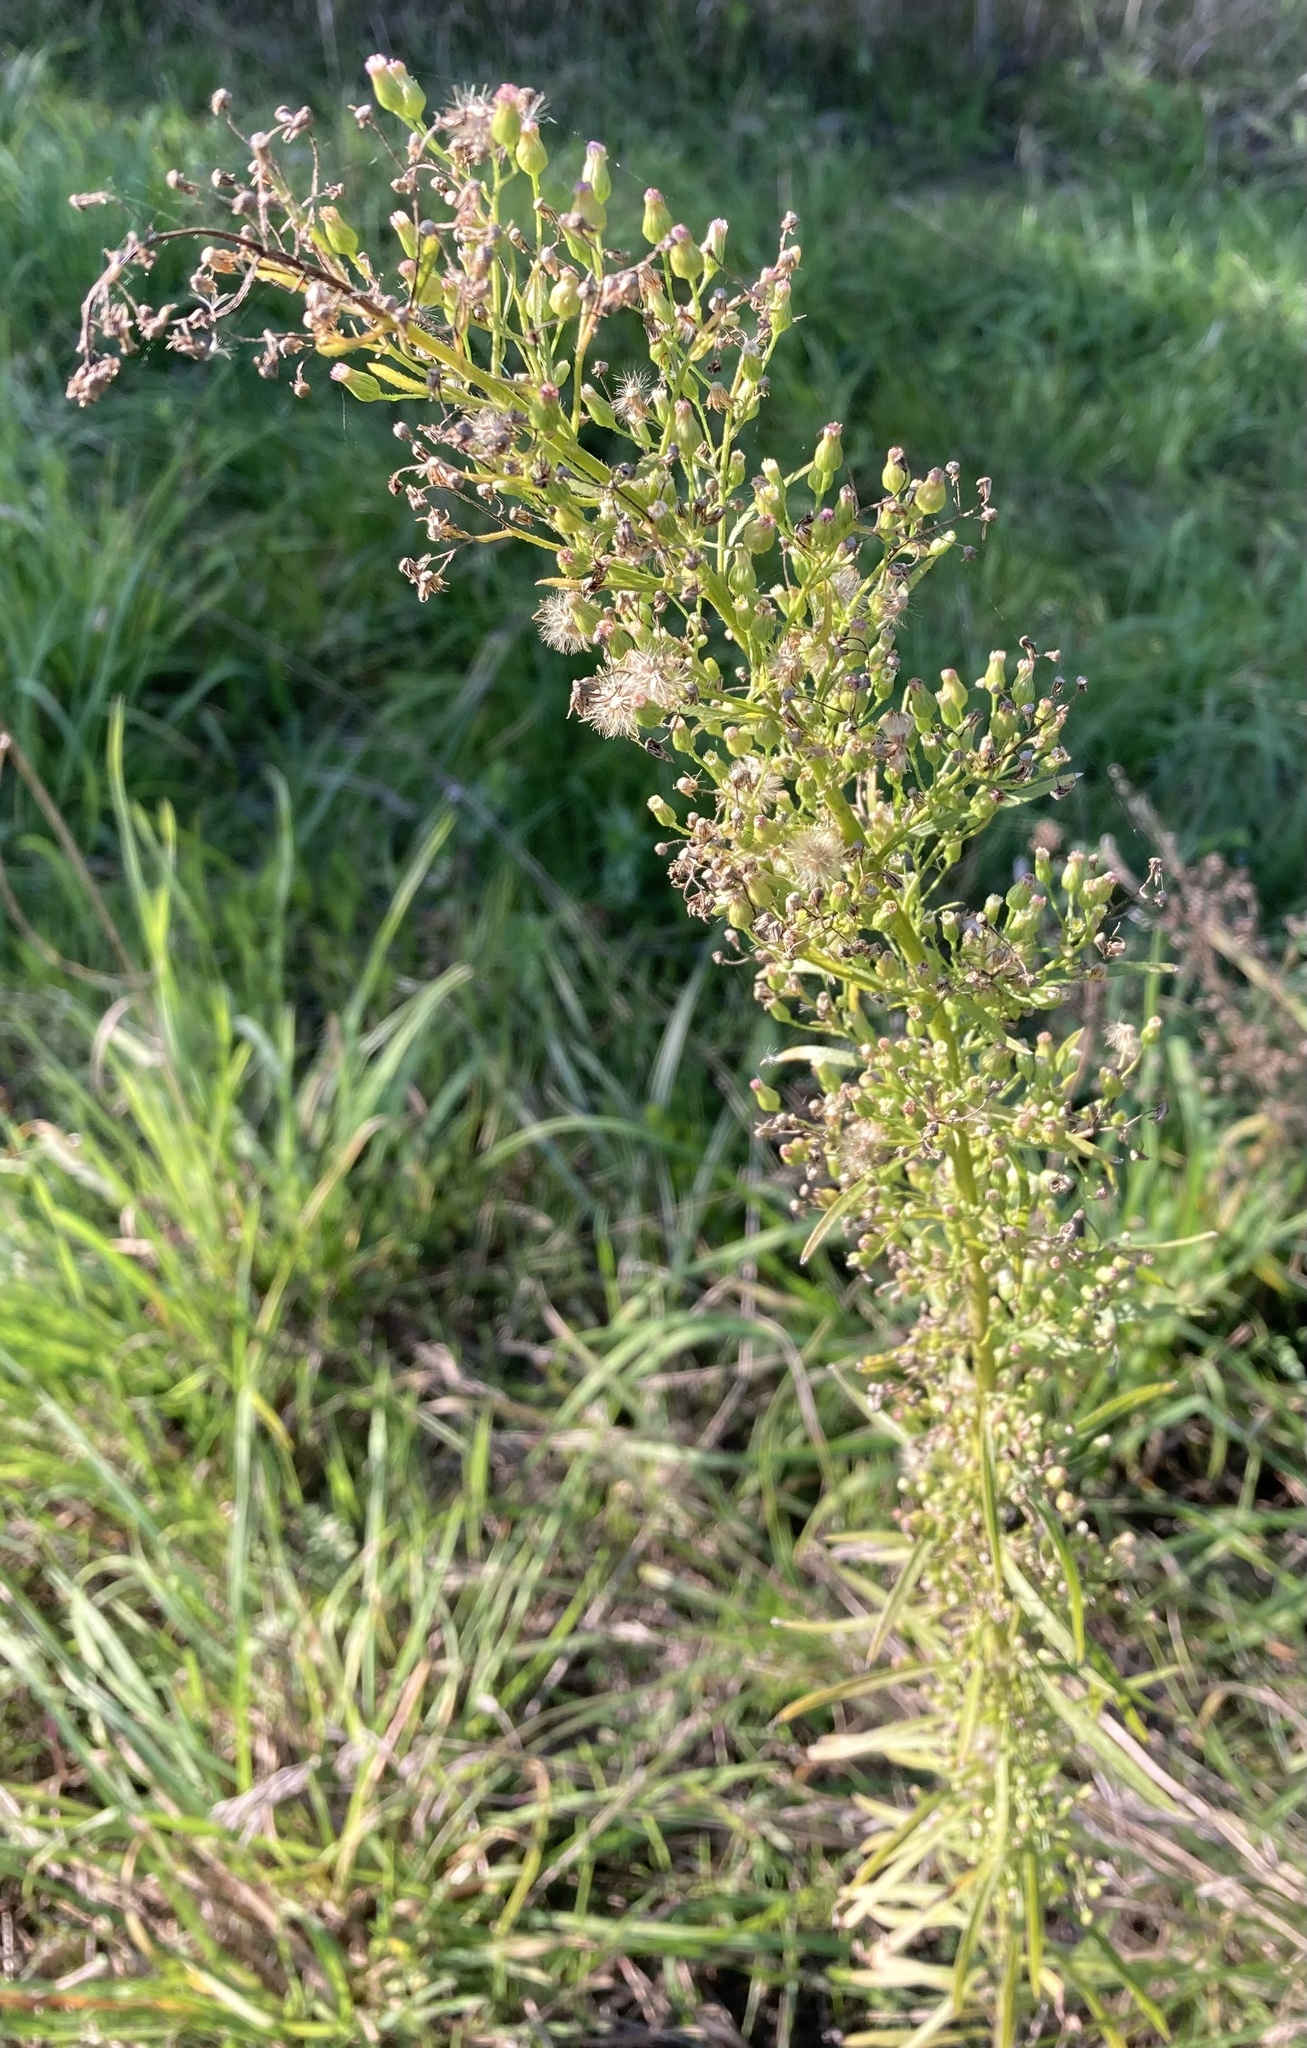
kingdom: Plantae
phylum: Tracheophyta
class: Magnoliopsida
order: Asterales
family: Asteraceae
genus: Erigeron
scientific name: Erigeron canadensis
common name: Canadian fleabane
